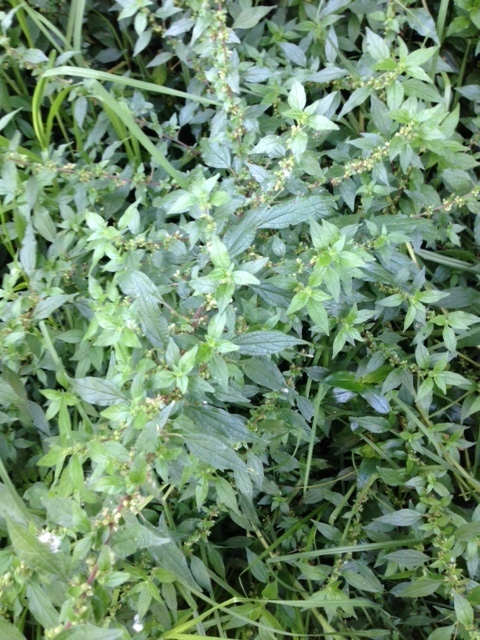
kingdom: Plantae
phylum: Tracheophyta
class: Magnoliopsida
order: Rosales
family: Urticaceae
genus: Parietaria
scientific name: Parietaria judaica
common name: Pellitory-of-the-wall
